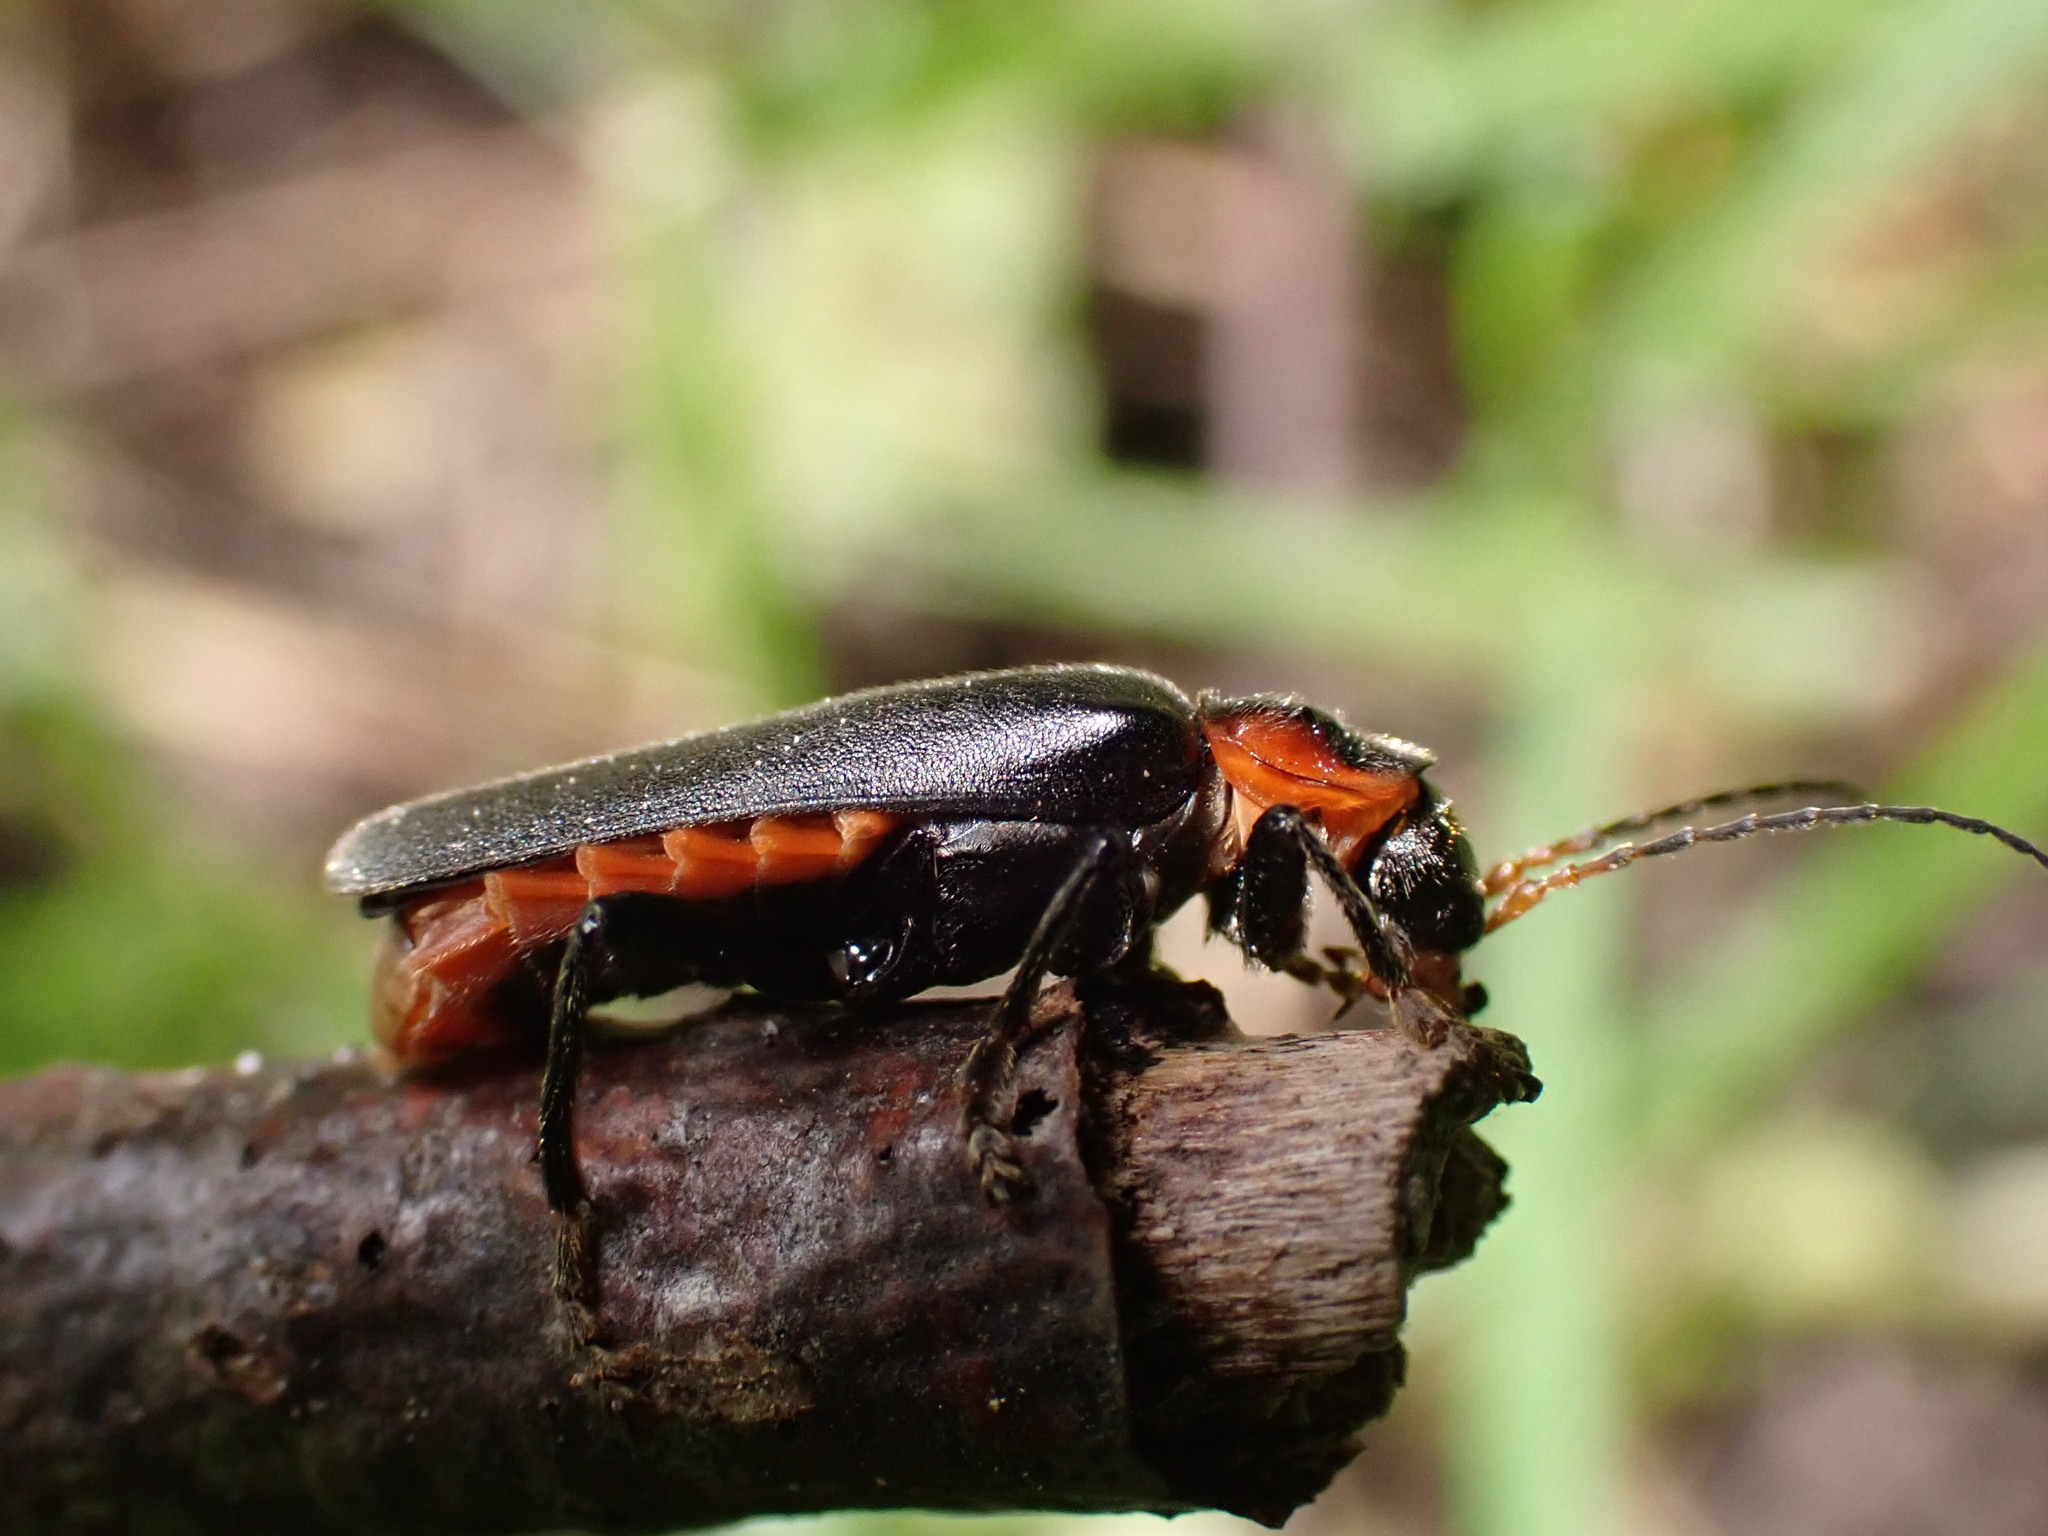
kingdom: Animalia
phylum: Arthropoda
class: Insecta
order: Coleoptera
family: Cantharidae
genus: Cantharis
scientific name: Cantharis fusca
